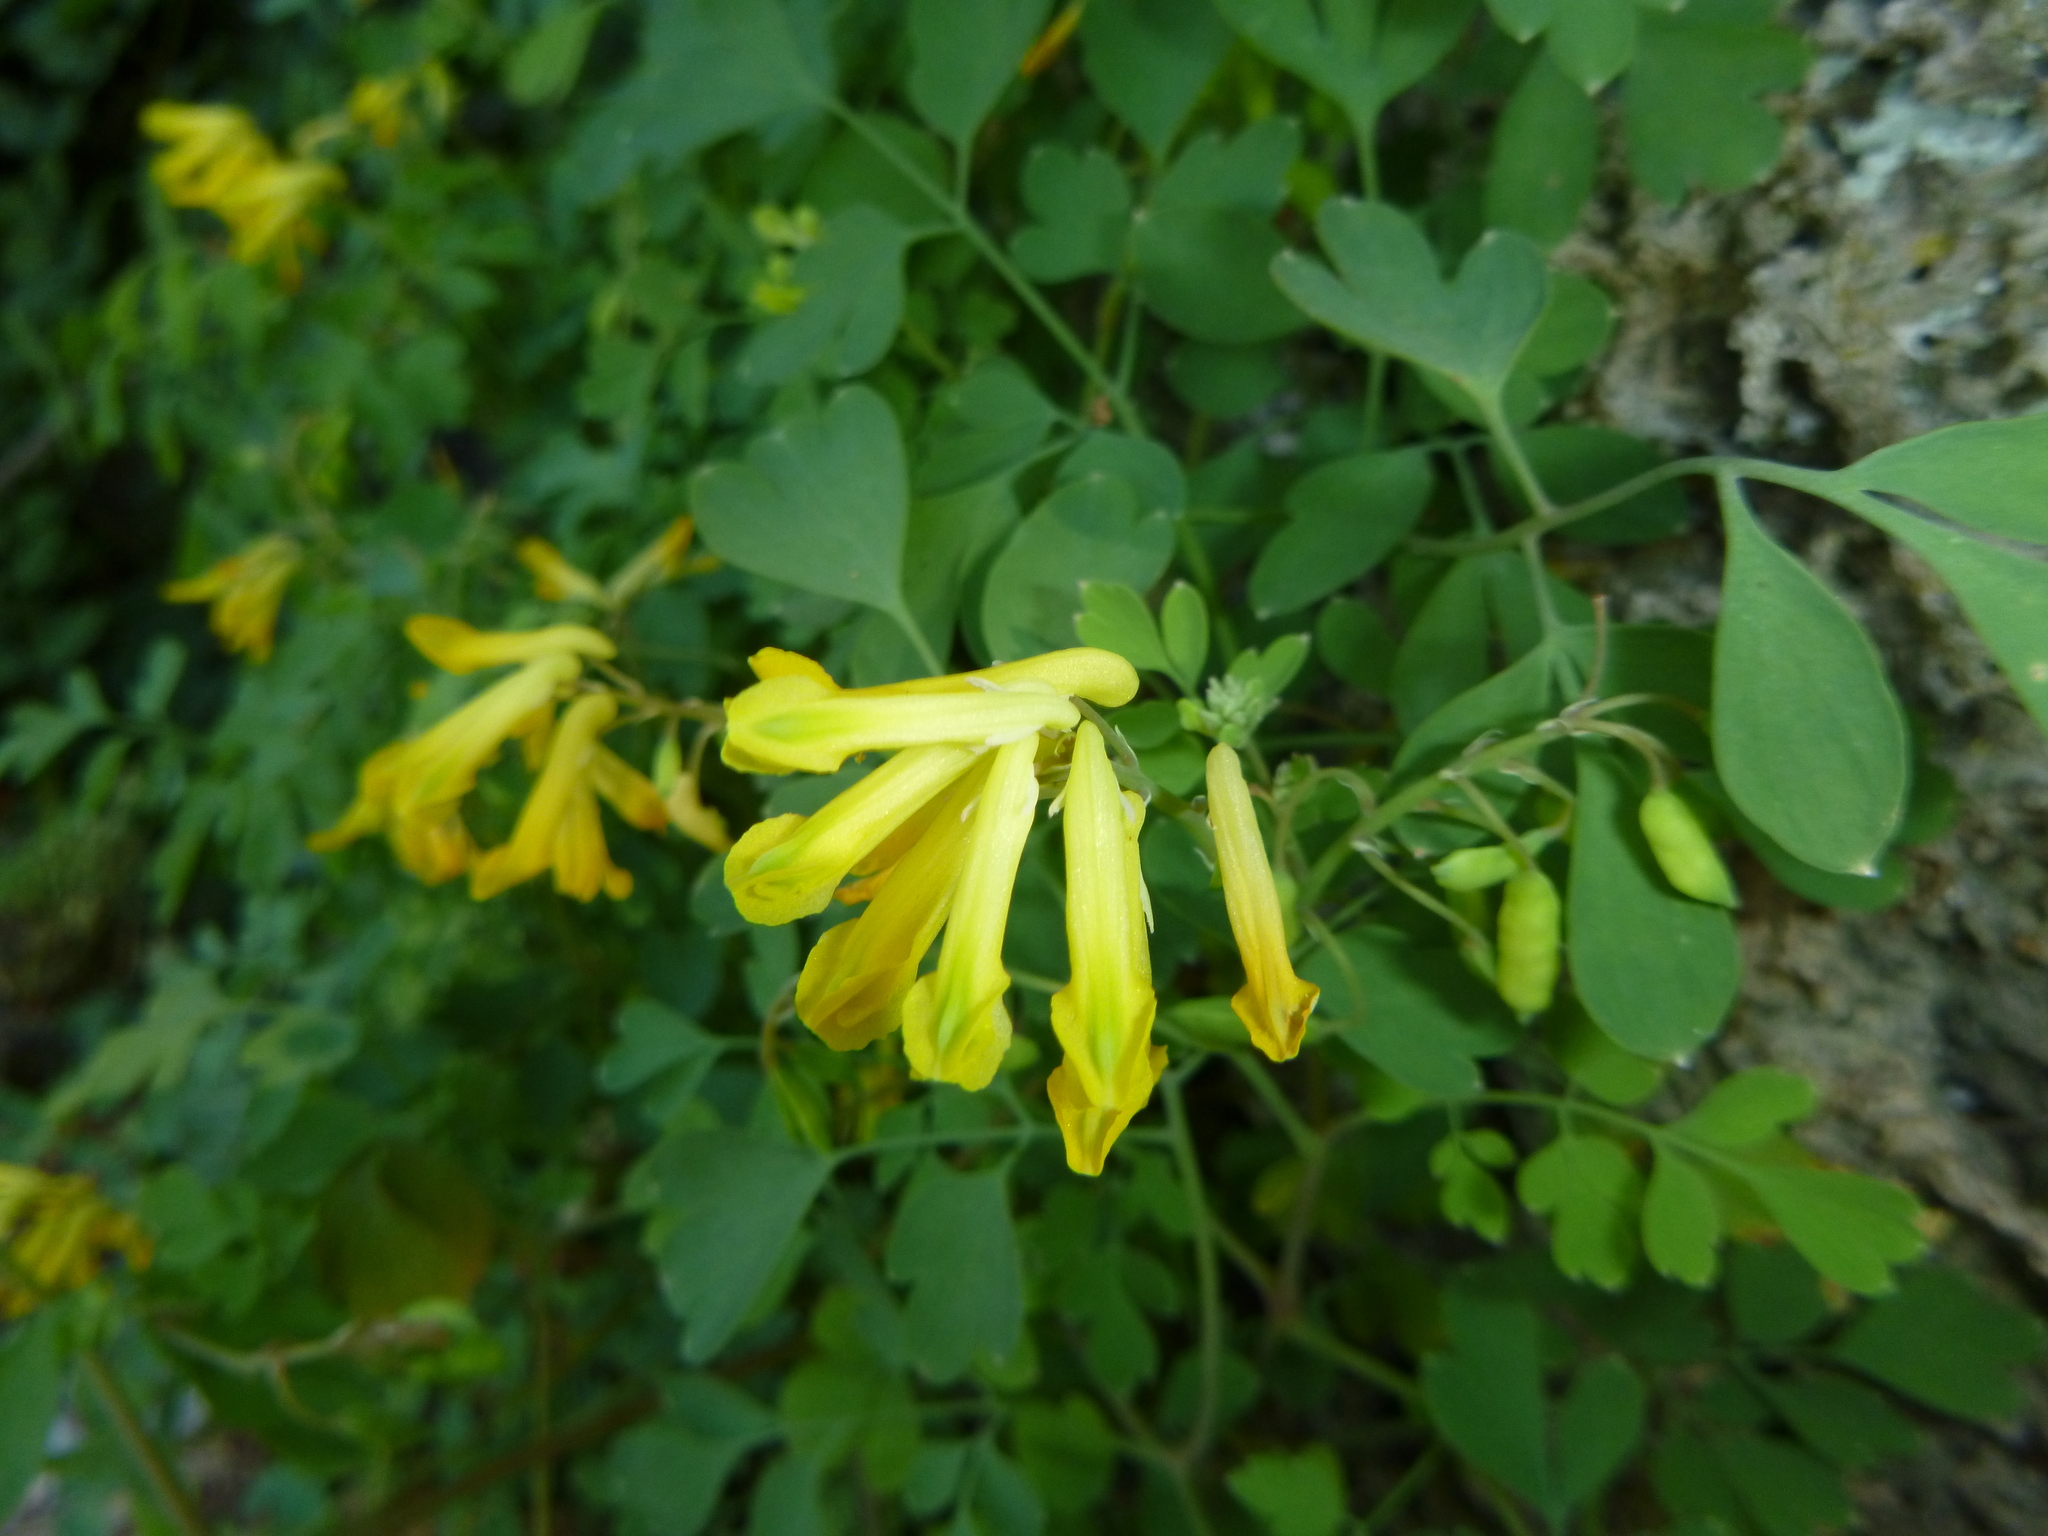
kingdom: Plantae
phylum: Tracheophyta
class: Magnoliopsida
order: Ranunculales
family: Papaveraceae
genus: Pseudofumaria
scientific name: Pseudofumaria lutea
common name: Yellow corydalis
